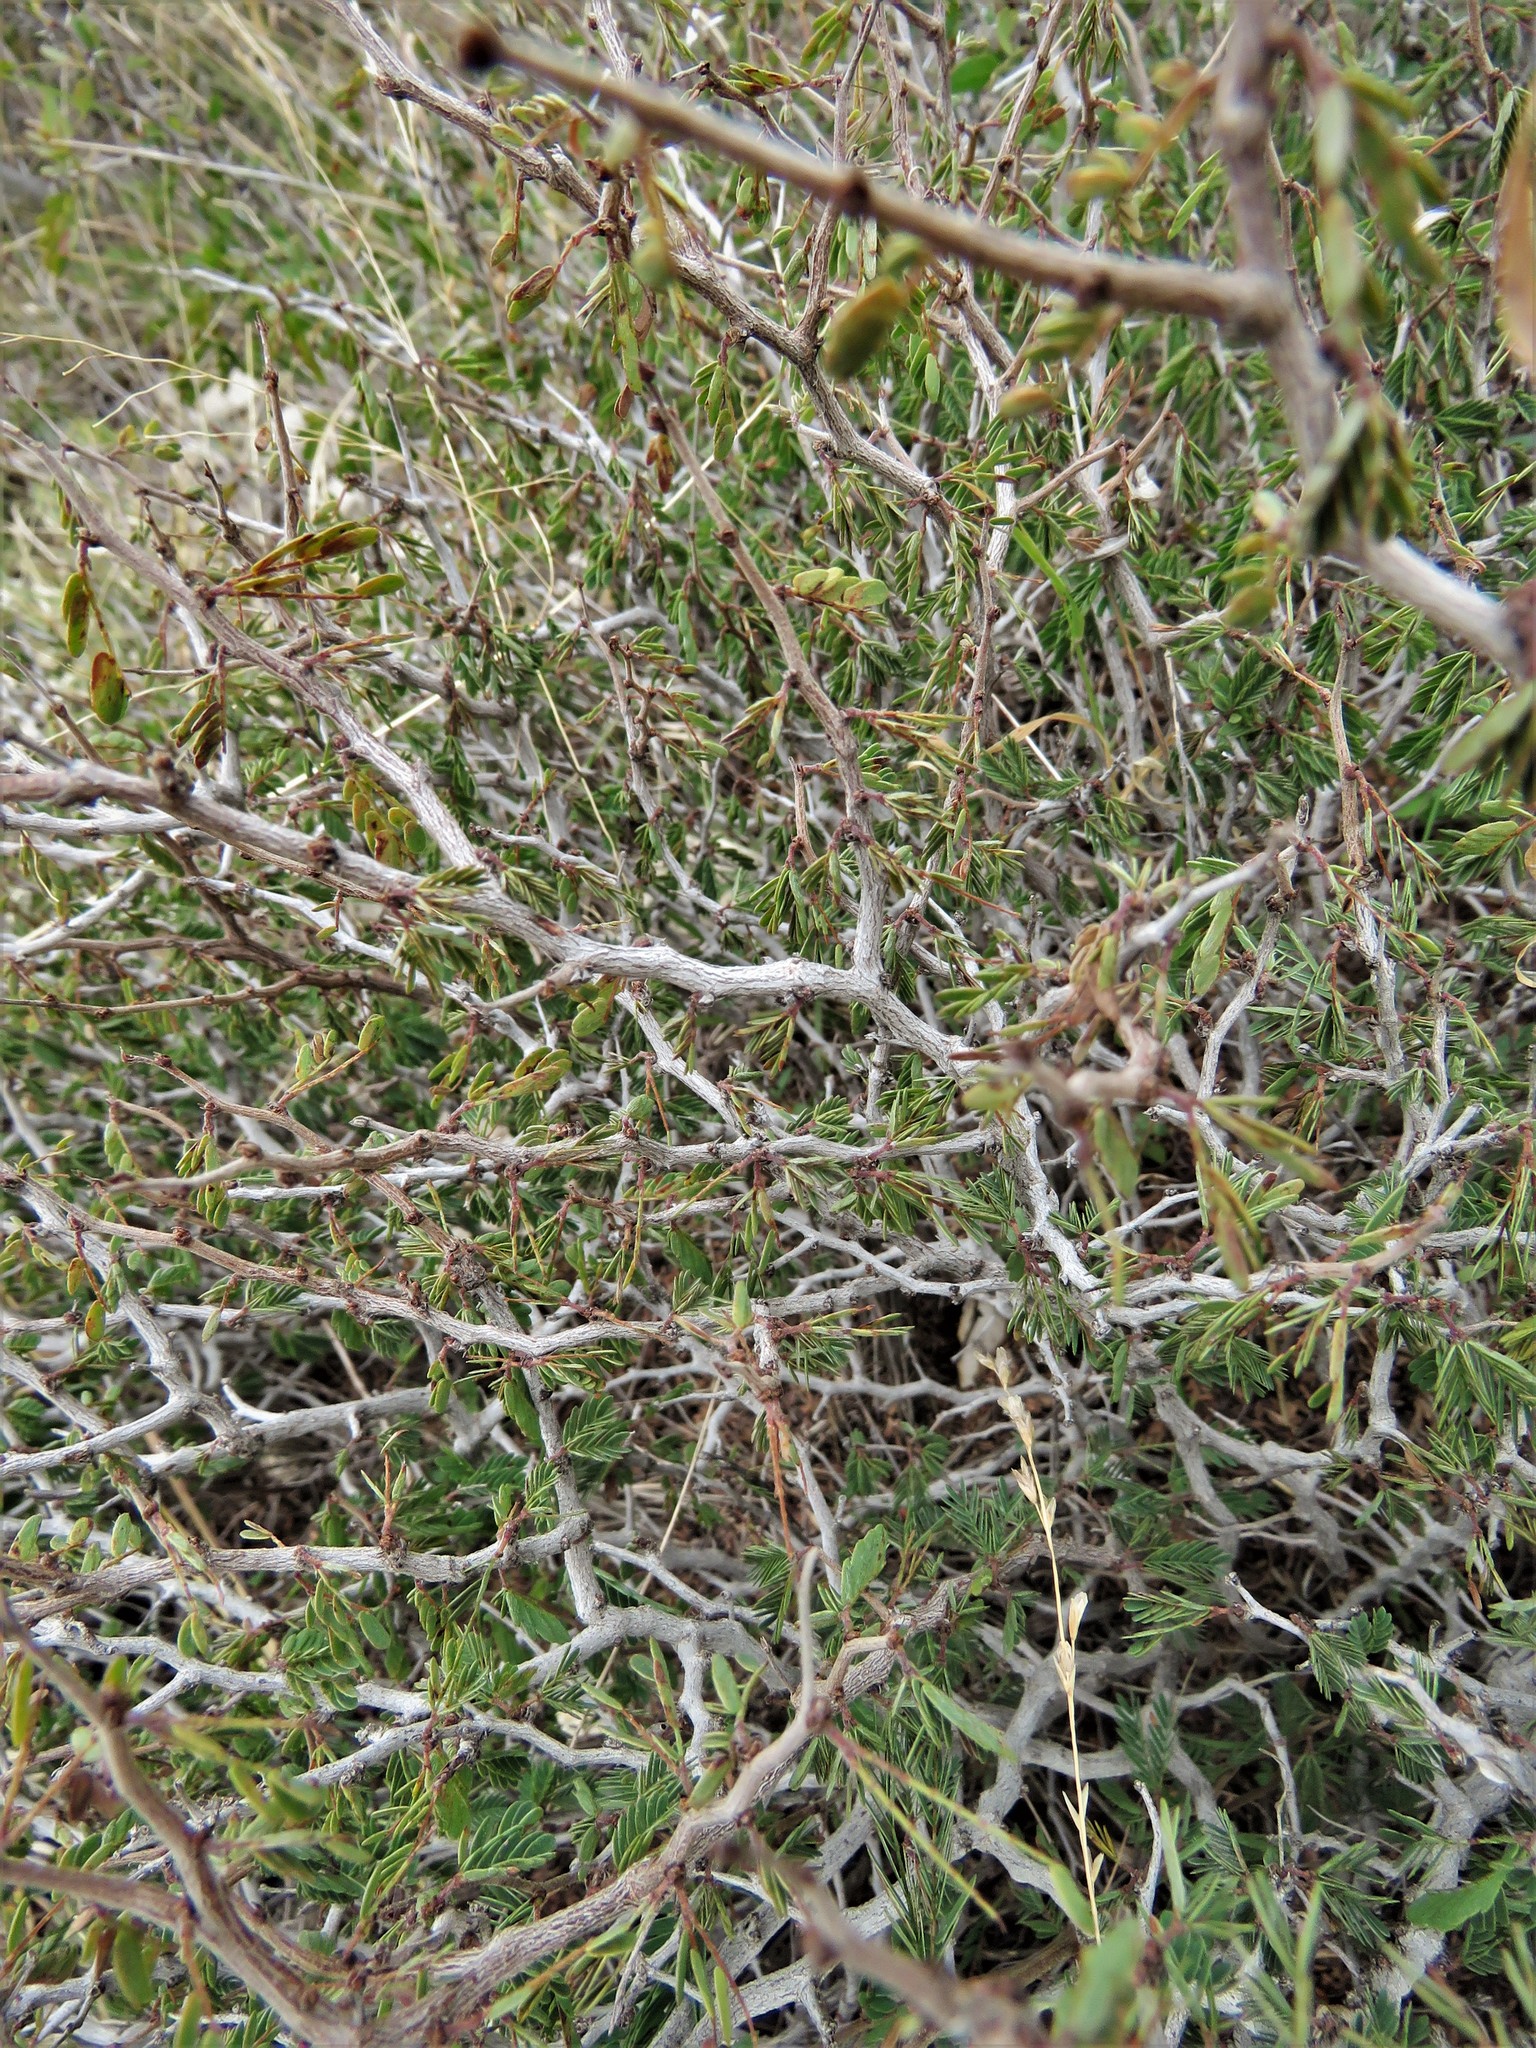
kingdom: Plantae
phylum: Tracheophyta
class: Magnoliopsida
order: Fabales
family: Fabaceae
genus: Calliandra
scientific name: Calliandra conferta
